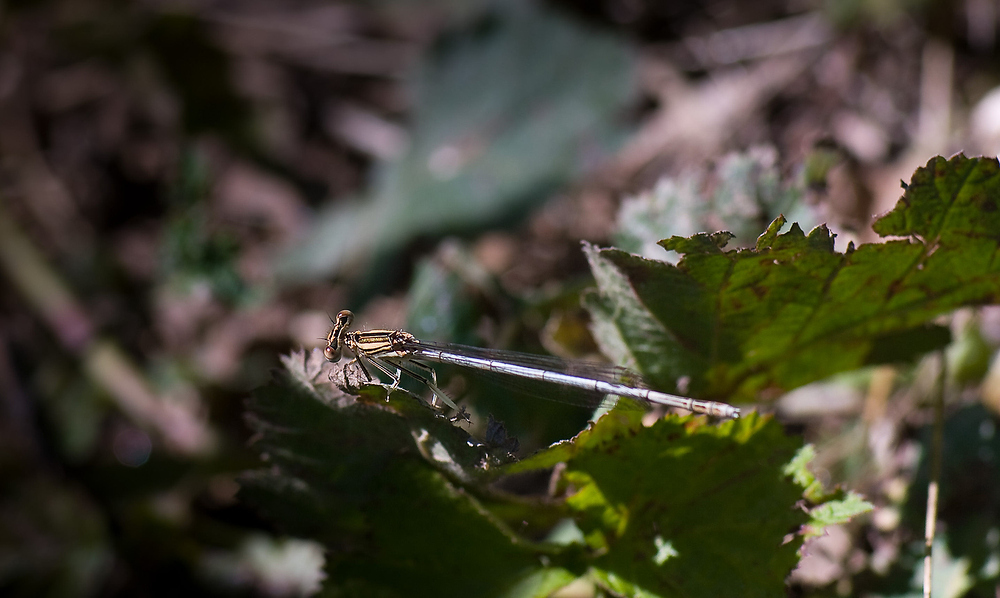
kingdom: Animalia
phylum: Arthropoda
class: Insecta
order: Odonata
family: Platycnemididae
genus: Platycnemis
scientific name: Platycnemis latipes
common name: White featherleg
